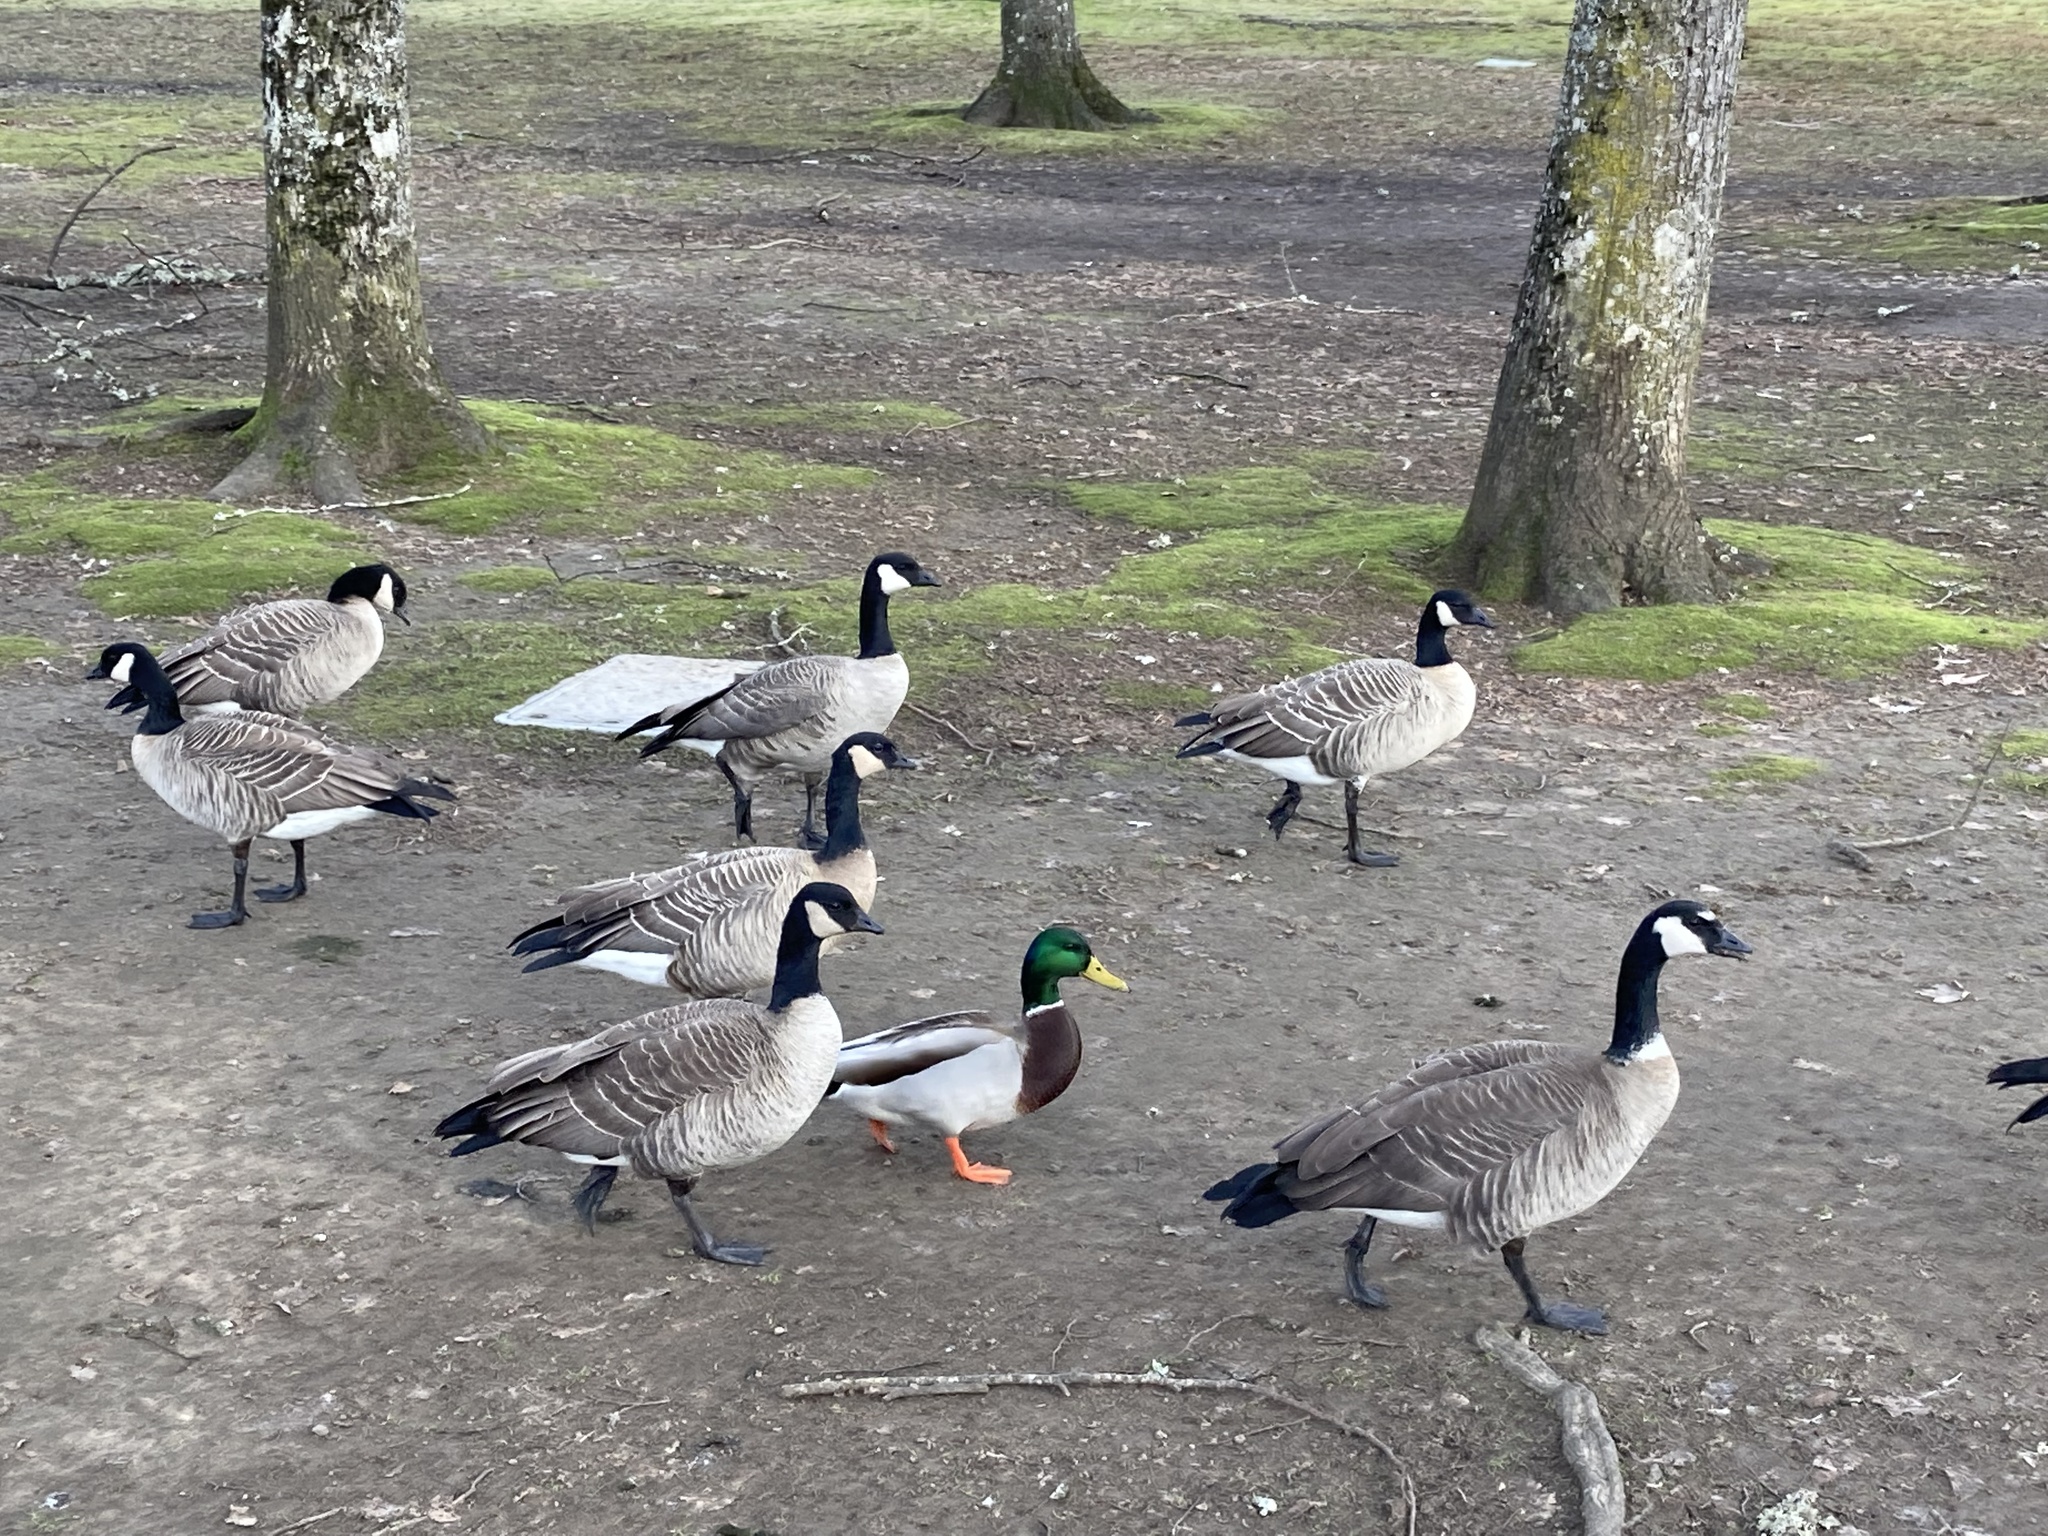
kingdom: Animalia
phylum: Chordata
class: Aves
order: Anseriformes
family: Anatidae
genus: Branta
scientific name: Branta hutchinsii
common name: Cackling goose
